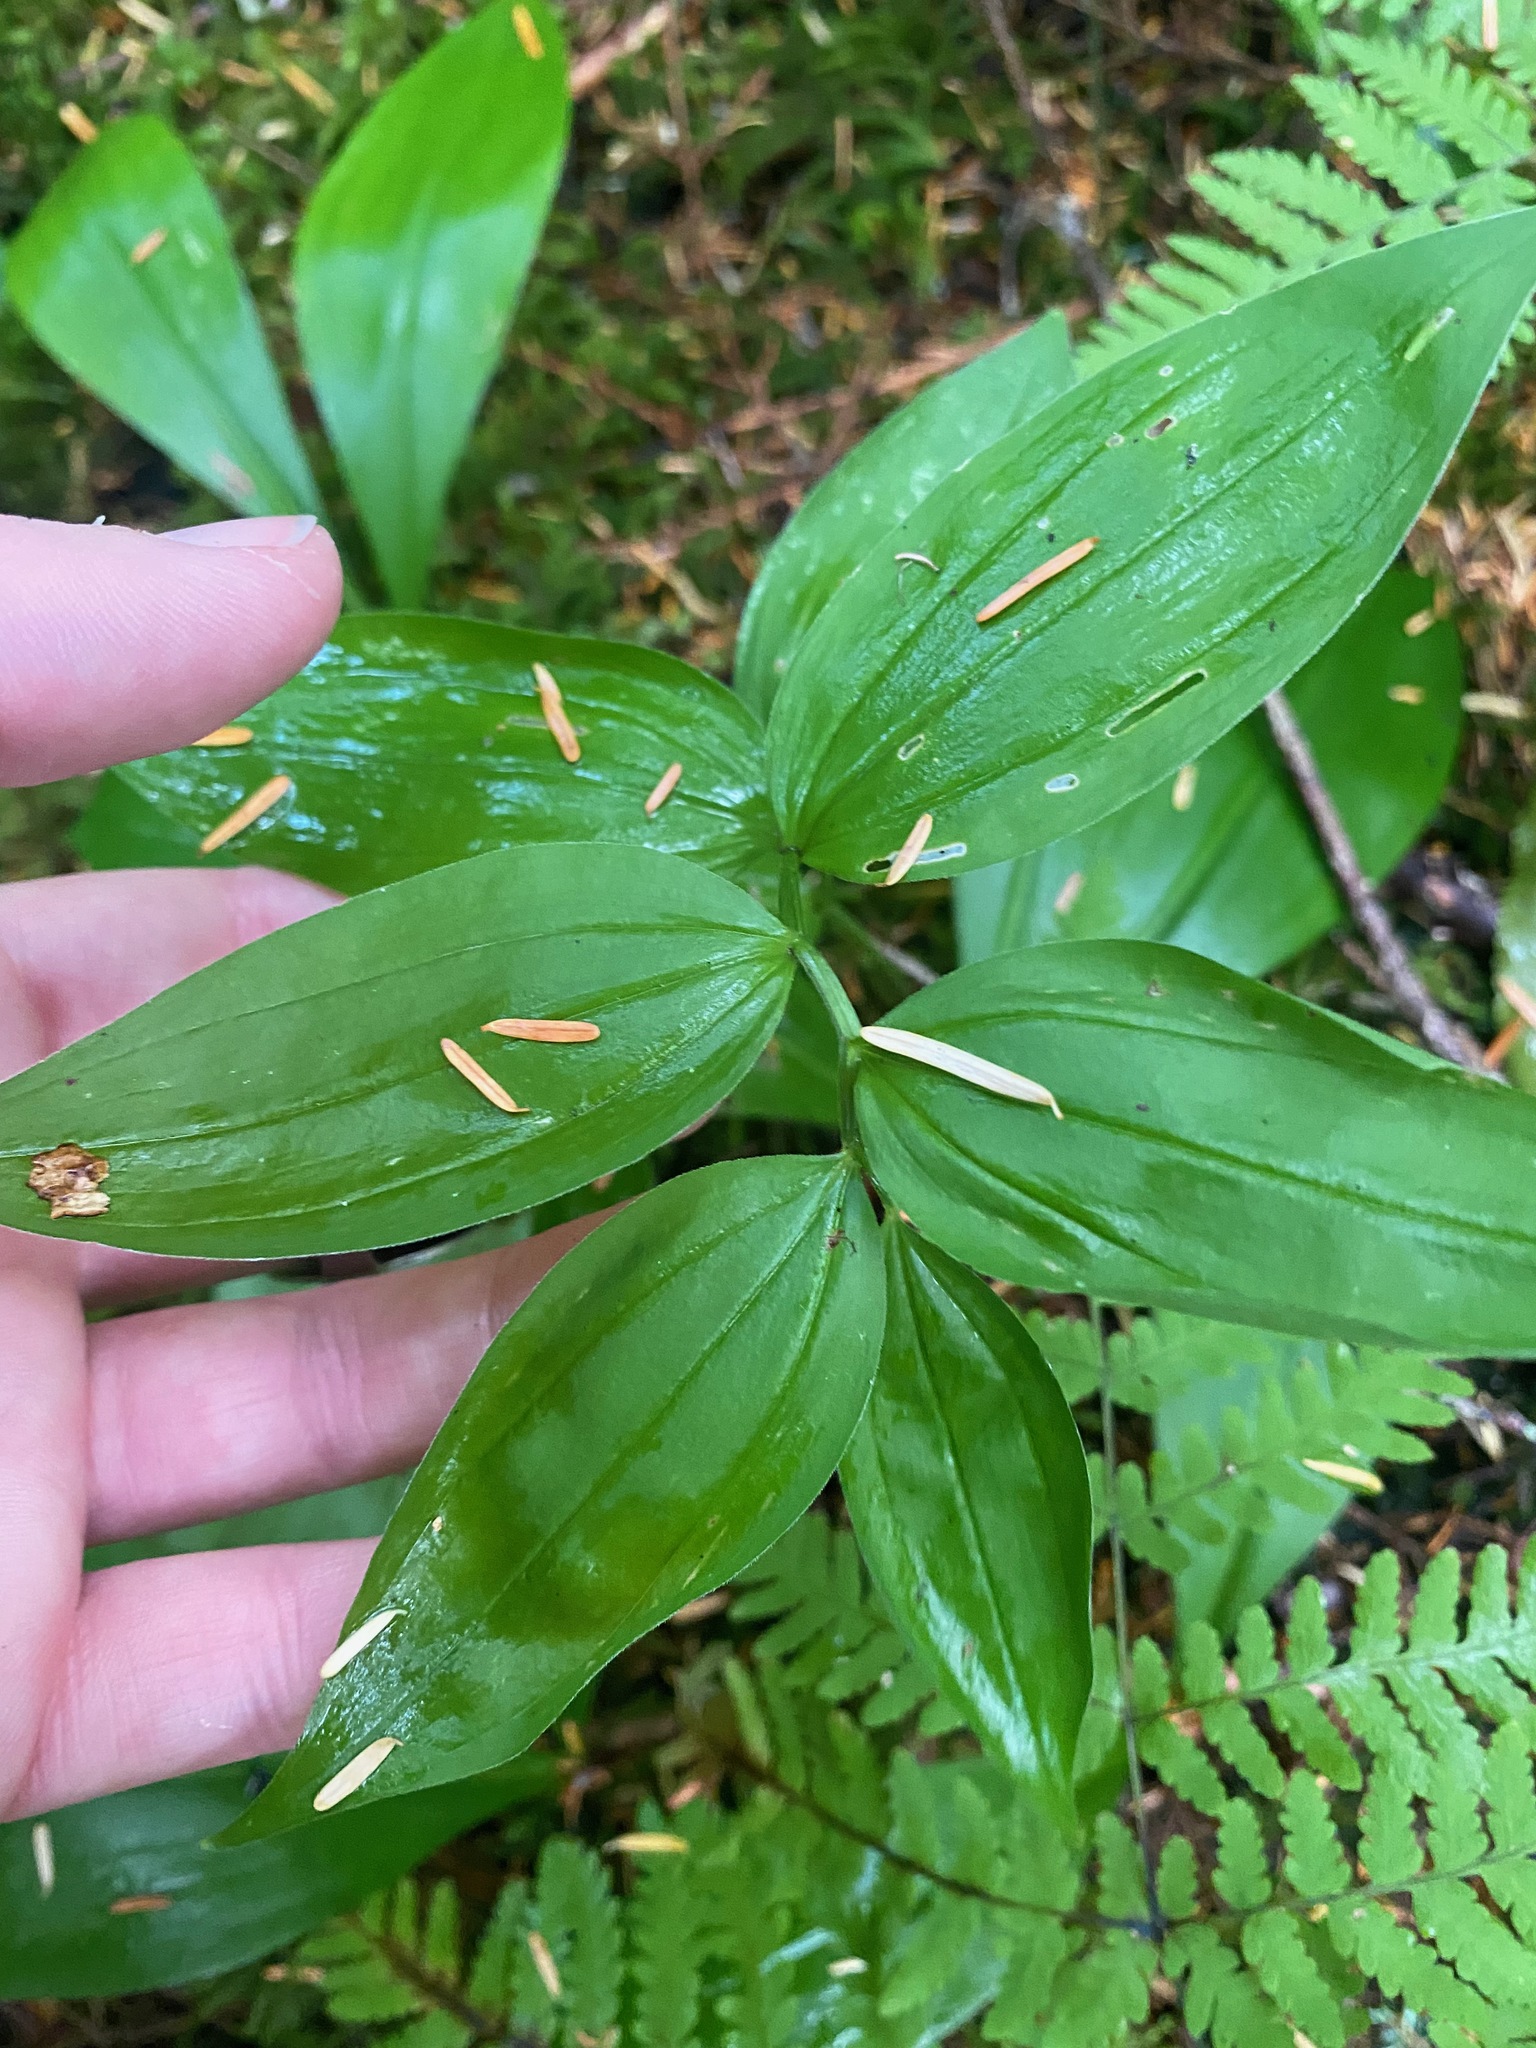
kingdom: Plantae
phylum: Tracheophyta
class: Liliopsida
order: Asparagales
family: Asparagaceae
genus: Maianthemum
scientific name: Maianthemum stellatum
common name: Little false solomon's seal
